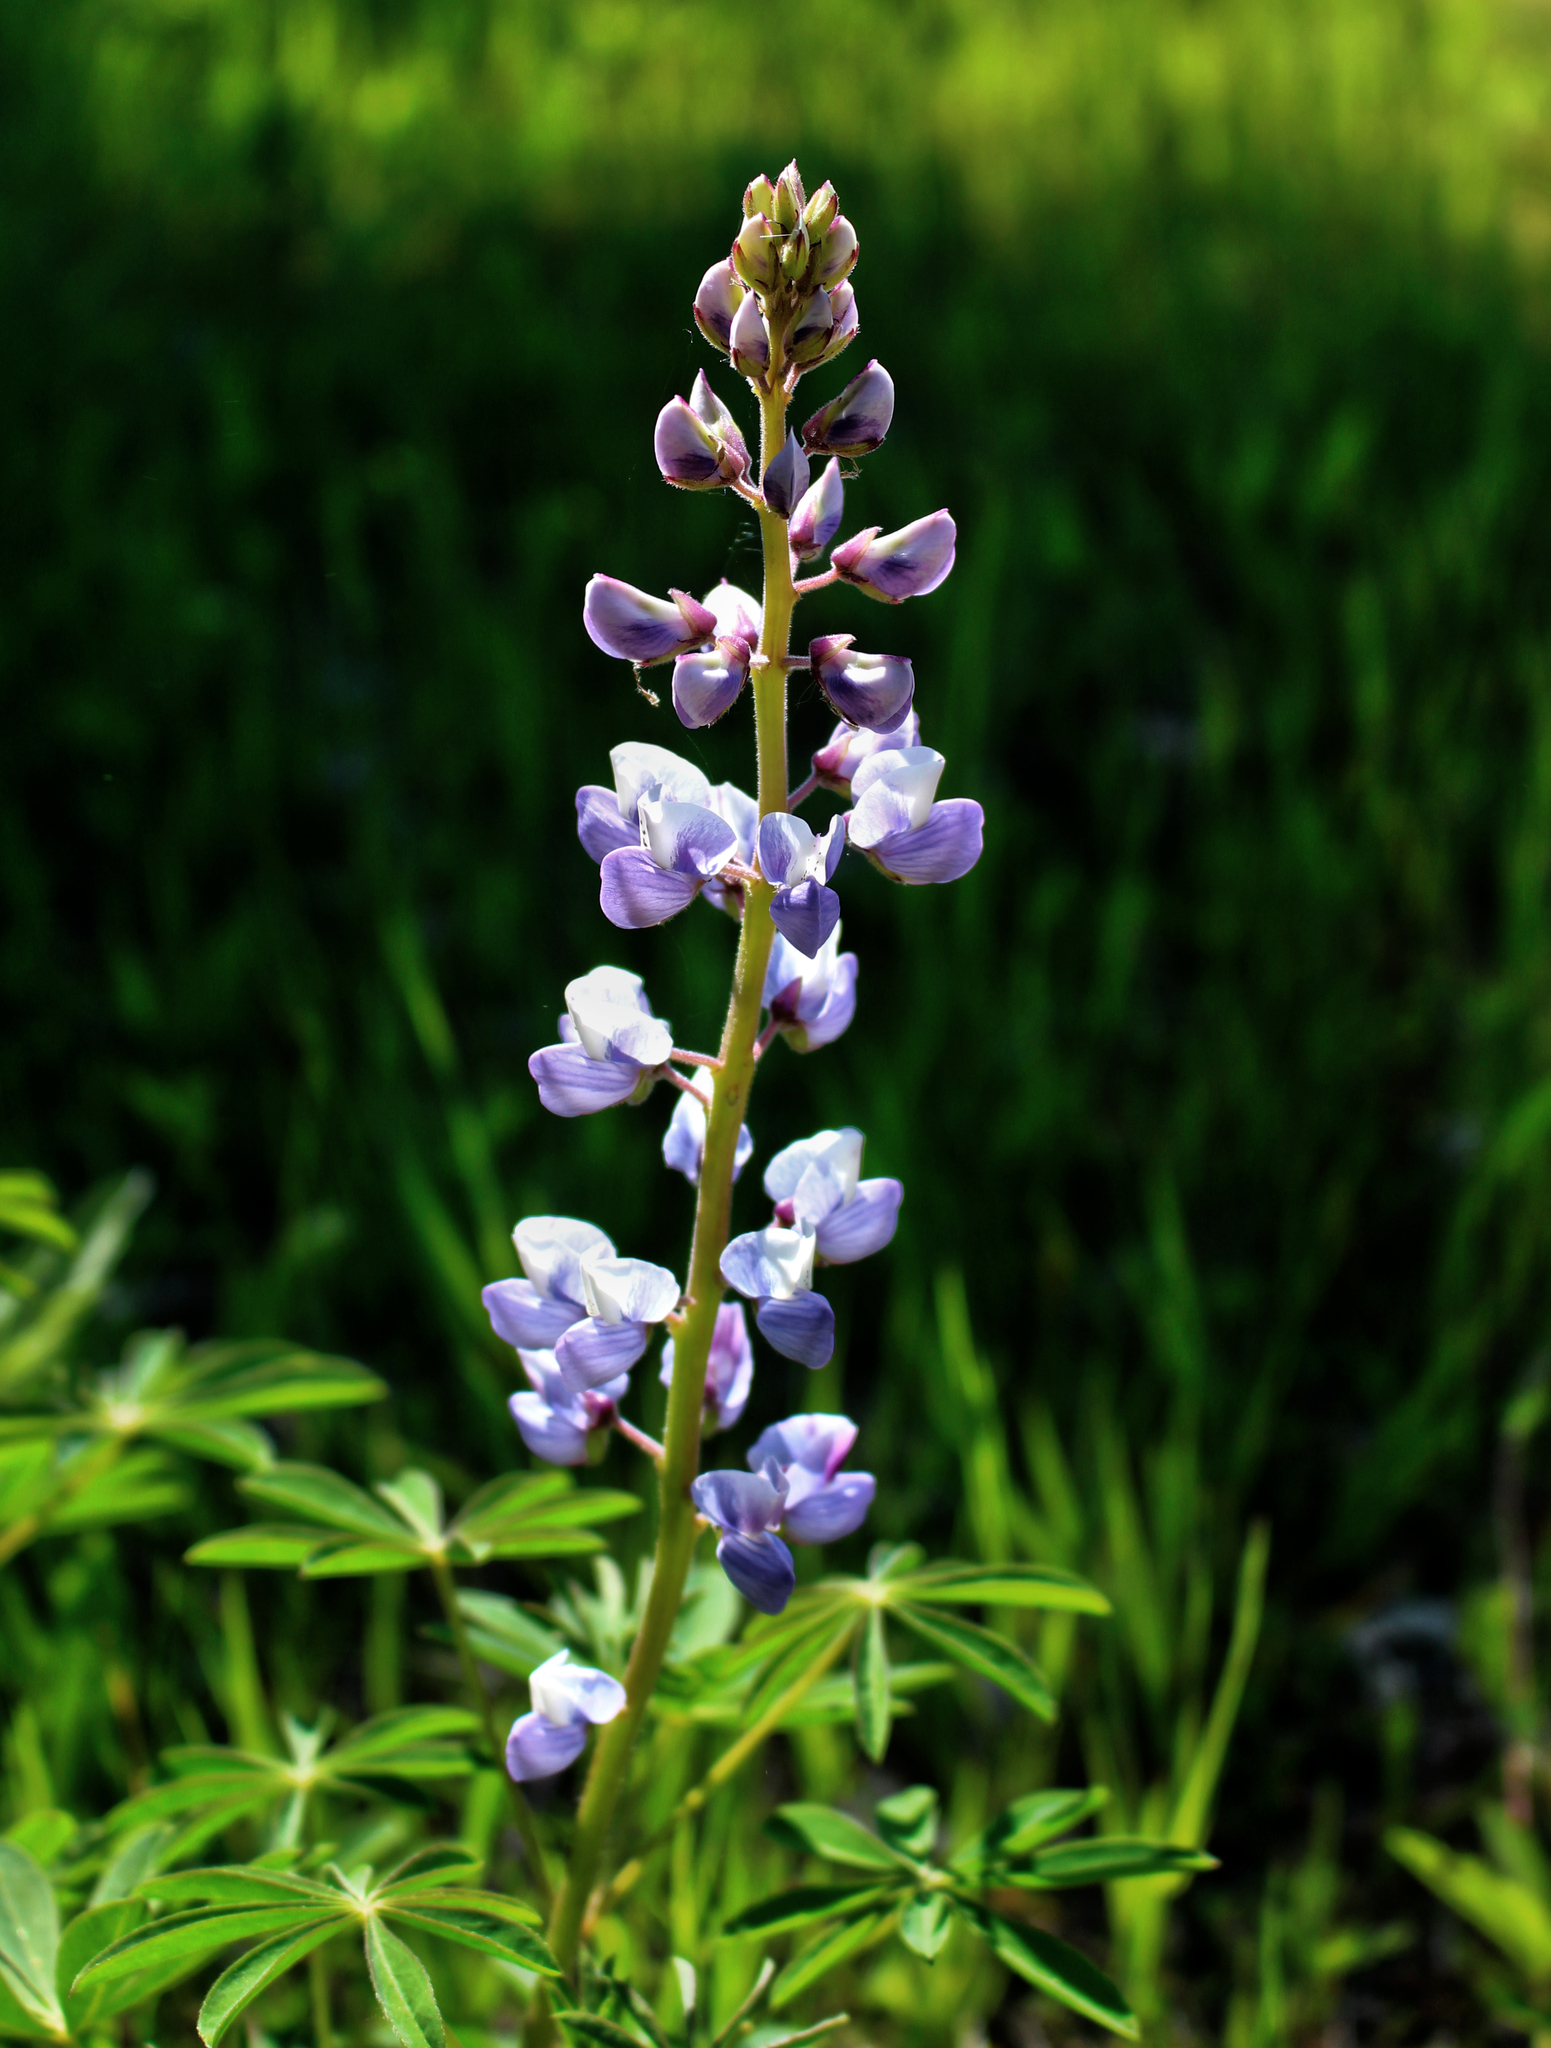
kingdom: Plantae
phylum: Tracheophyta
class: Magnoliopsida
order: Fabales
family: Fabaceae
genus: Lupinus
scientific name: Lupinus perennis
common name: Sundial lupine
